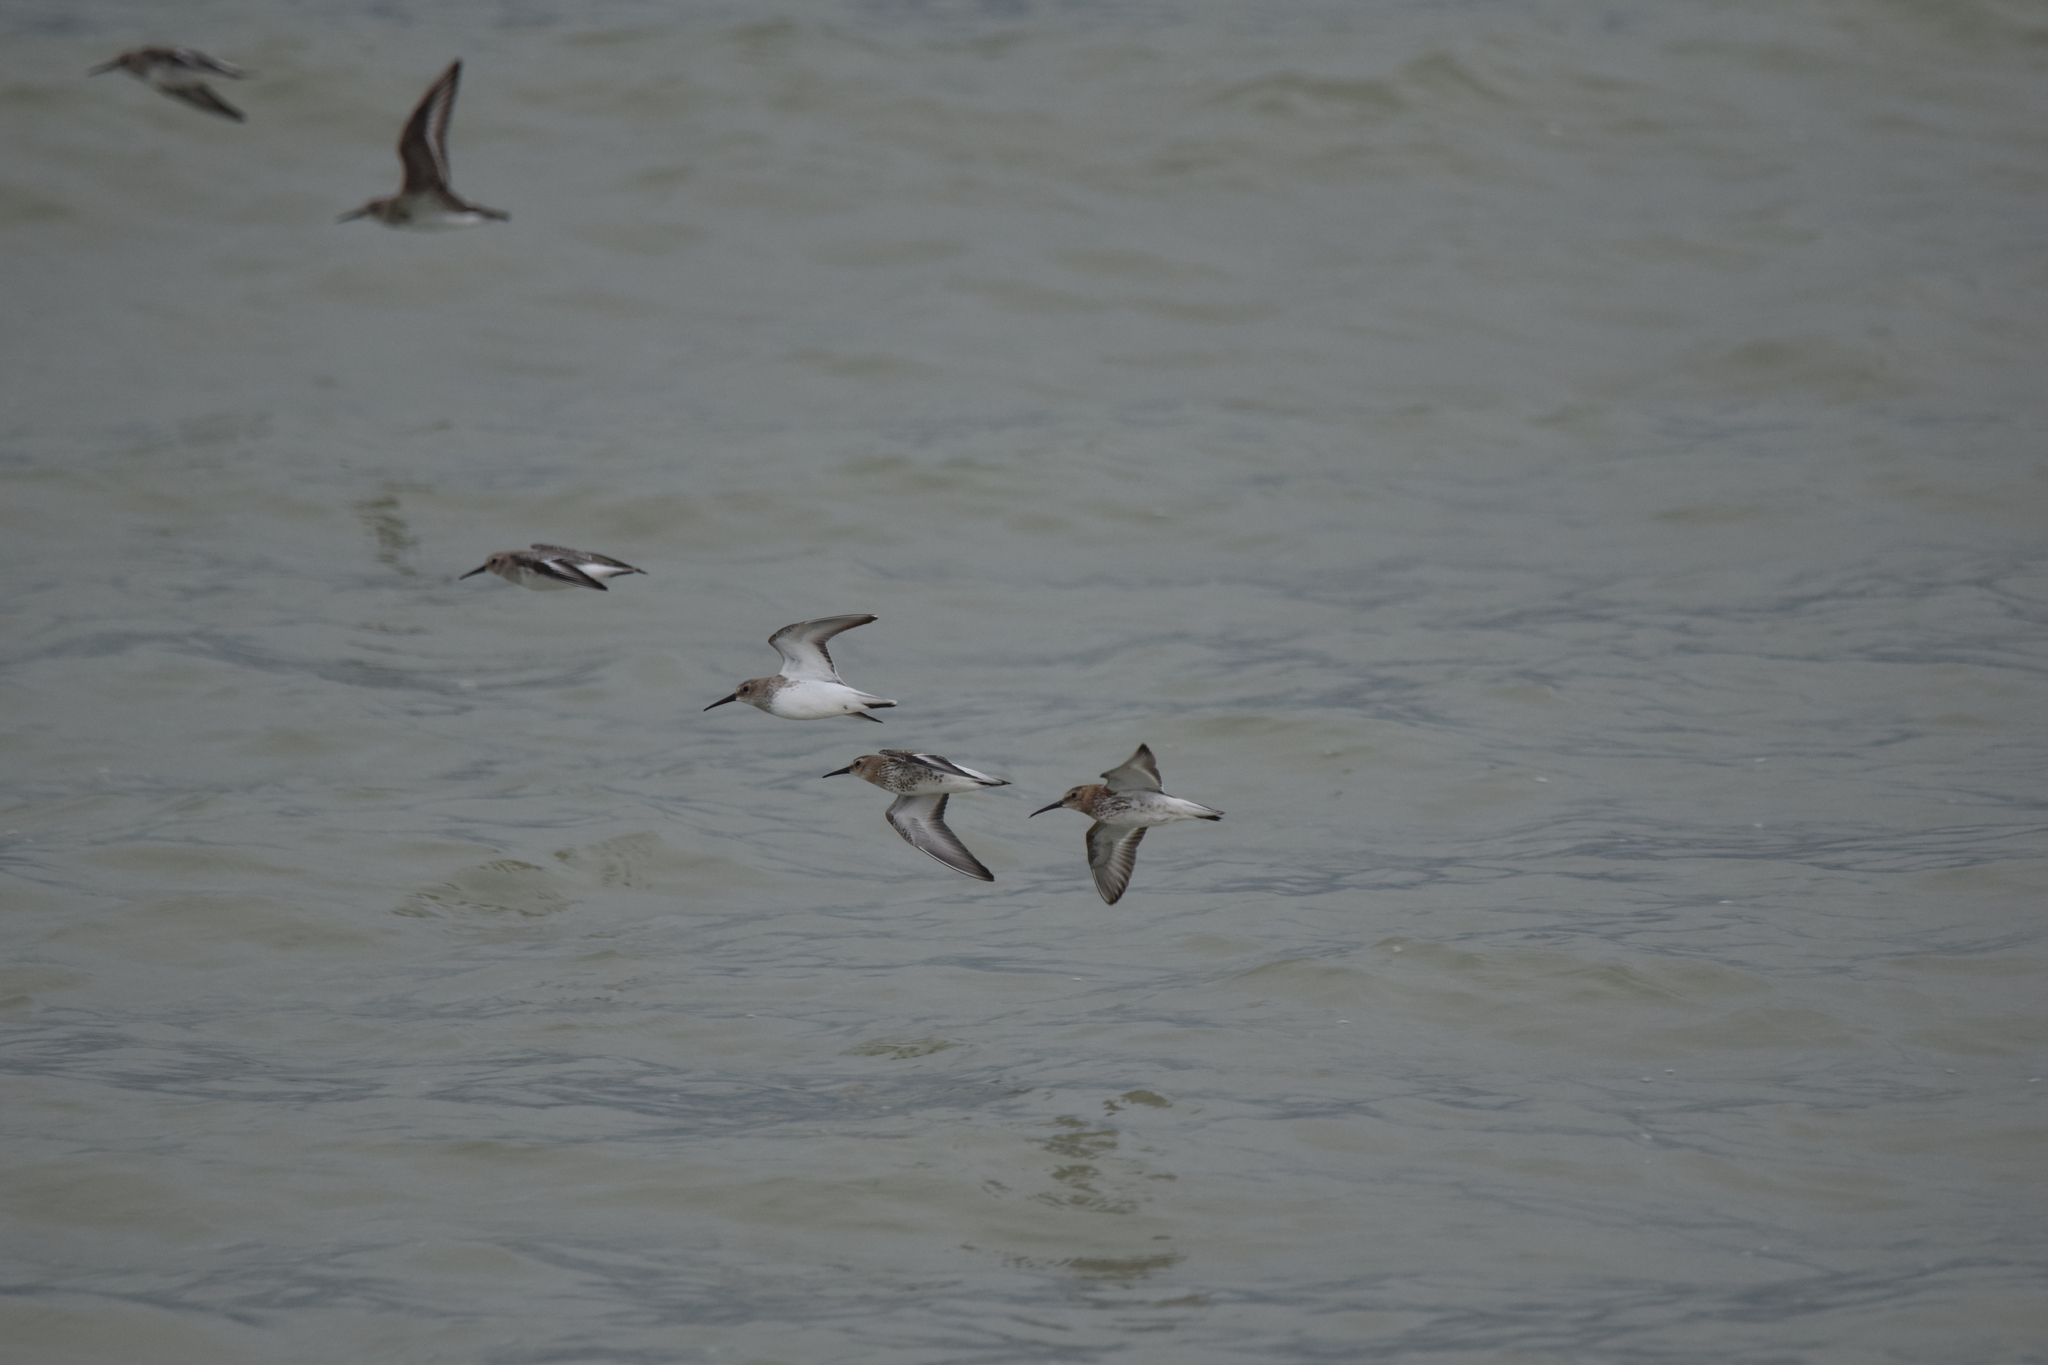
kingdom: Animalia
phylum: Chordata
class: Aves
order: Charadriiformes
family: Scolopacidae
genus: Calidris
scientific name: Calidris alpina
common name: Dunlin
